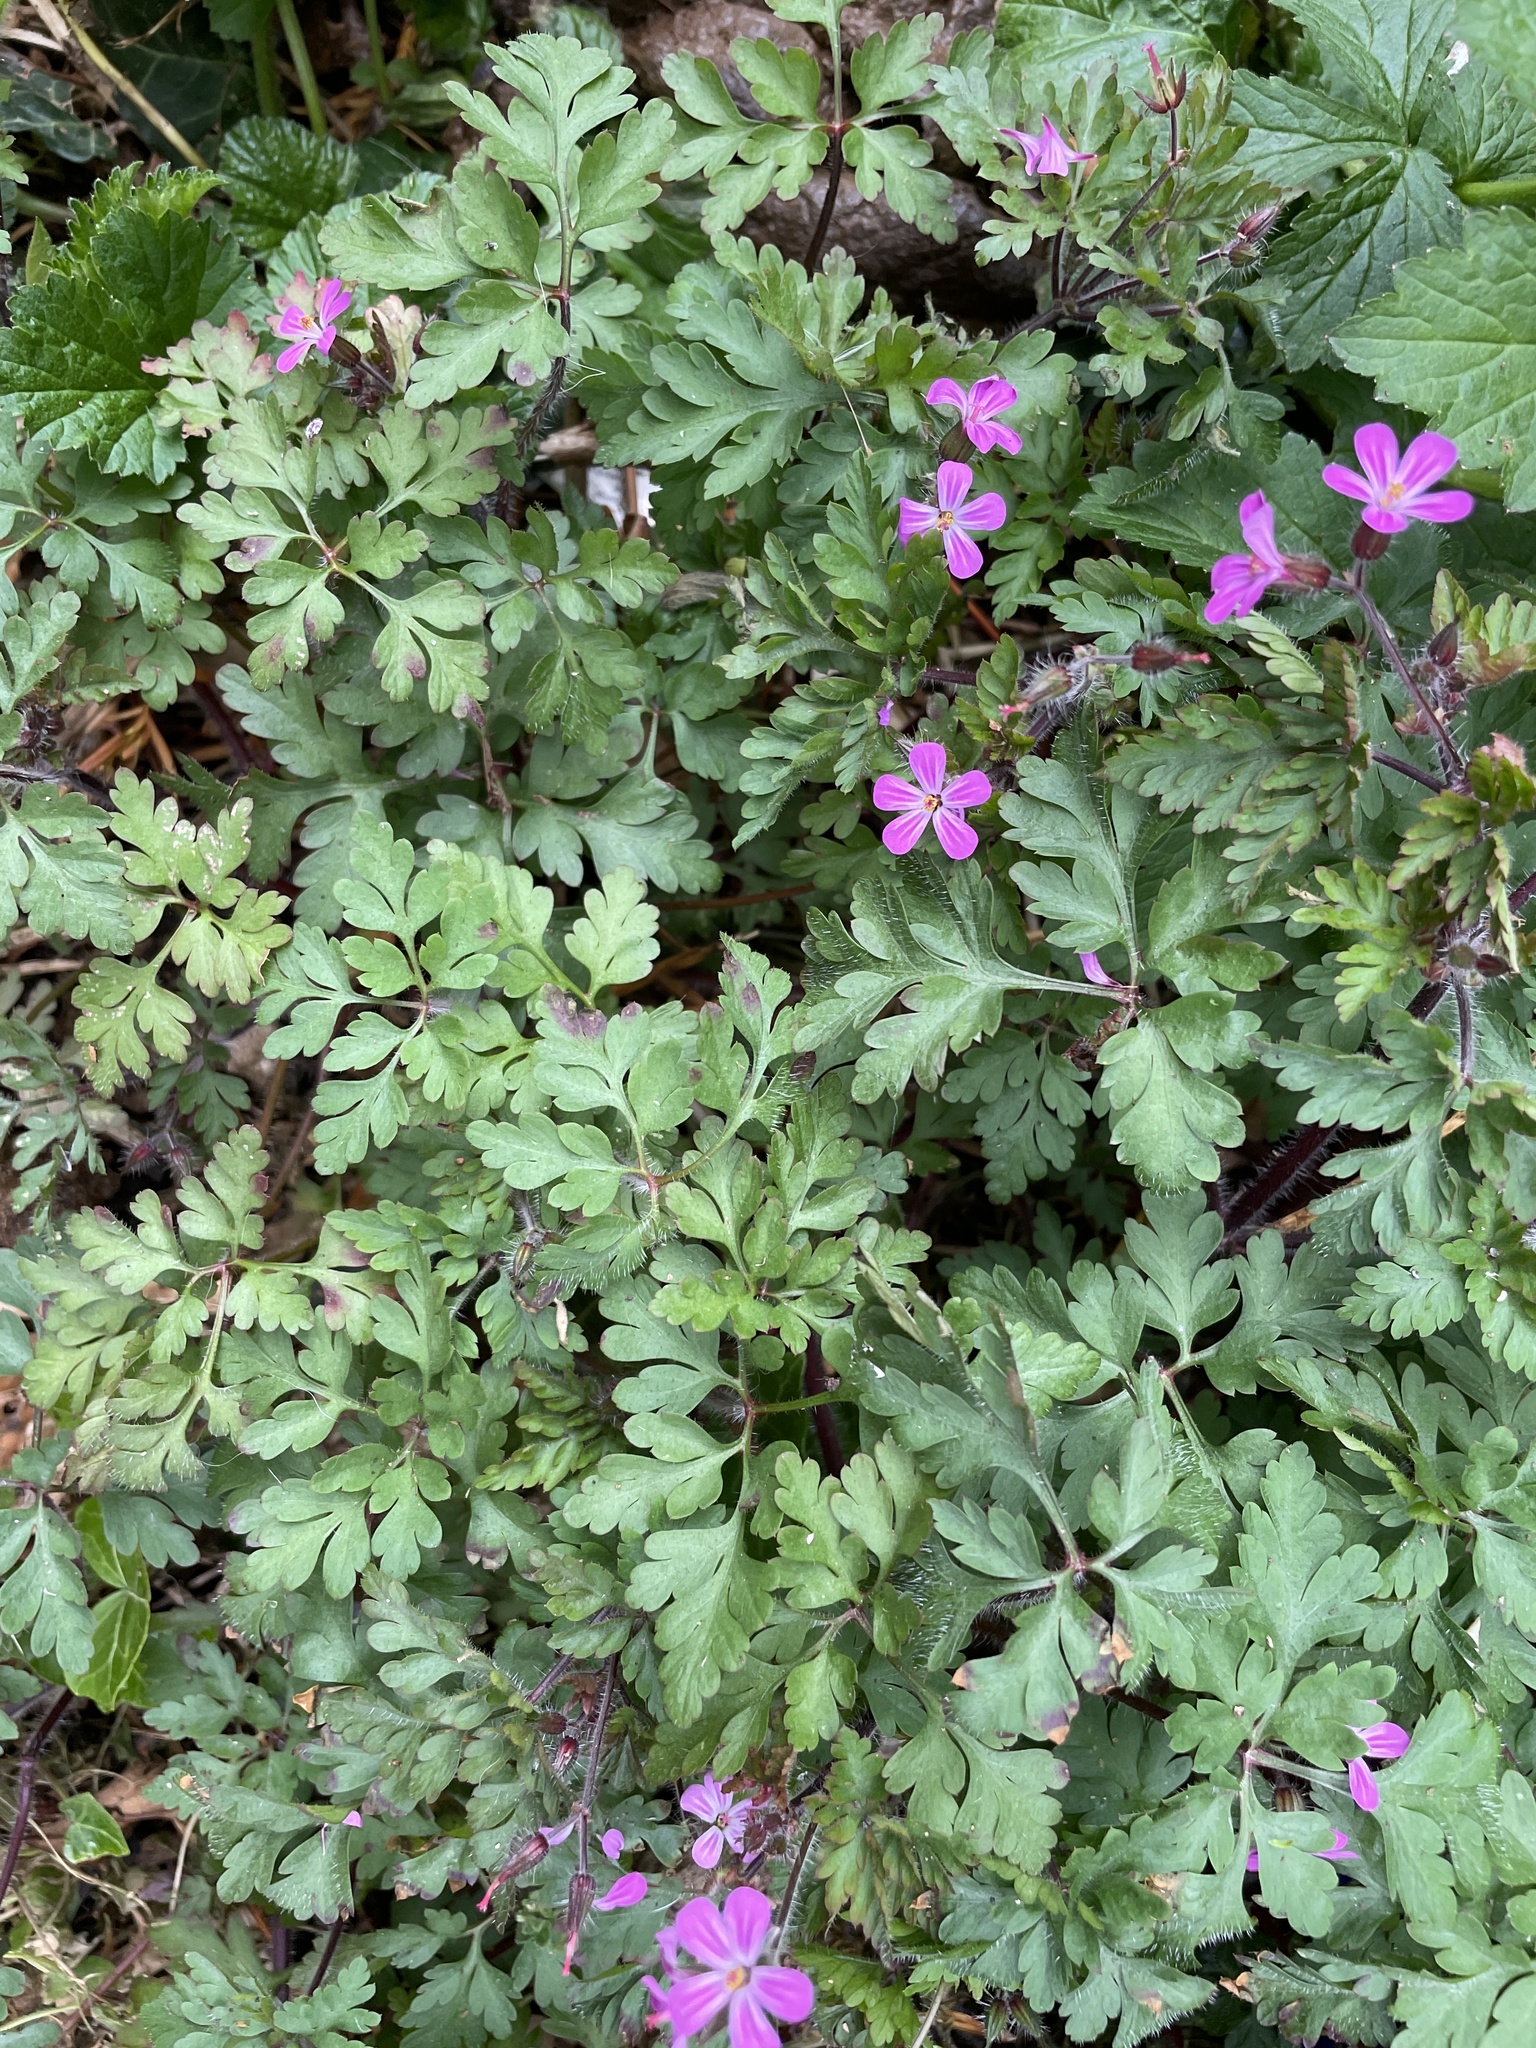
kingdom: Plantae
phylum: Tracheophyta
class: Magnoliopsida
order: Geraniales
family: Geraniaceae
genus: Geranium
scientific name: Geranium robertianum
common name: Herb-robert
